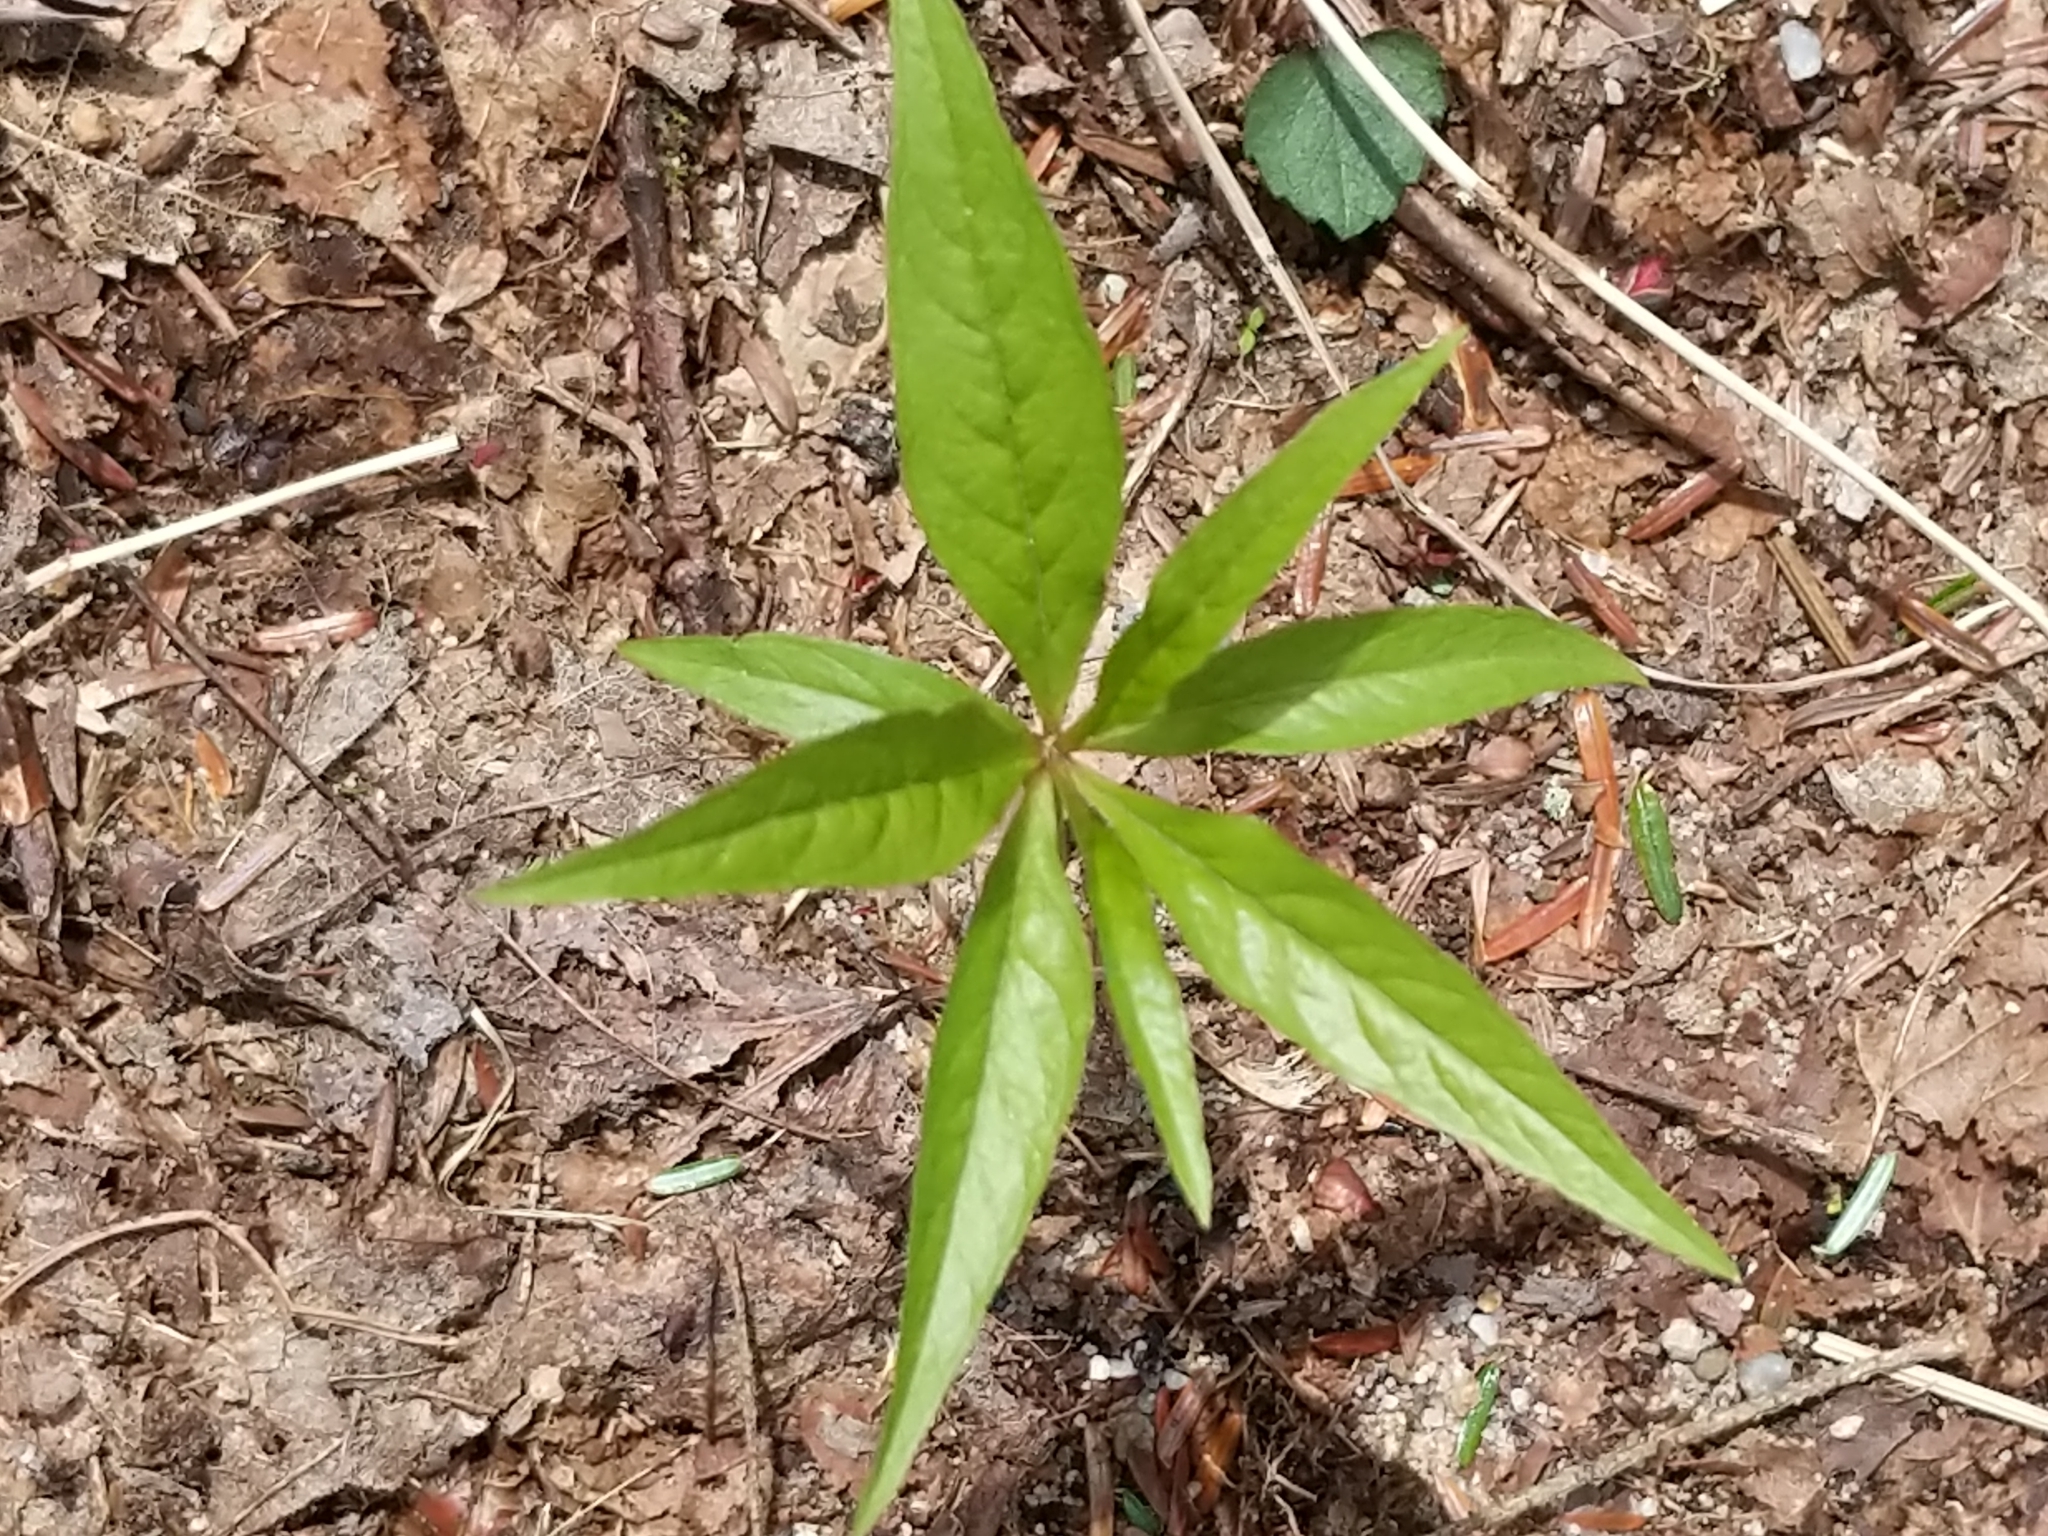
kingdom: Plantae
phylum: Tracheophyta
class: Magnoliopsida
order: Ericales
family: Primulaceae
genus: Lysimachia
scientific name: Lysimachia borealis
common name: American starflower
